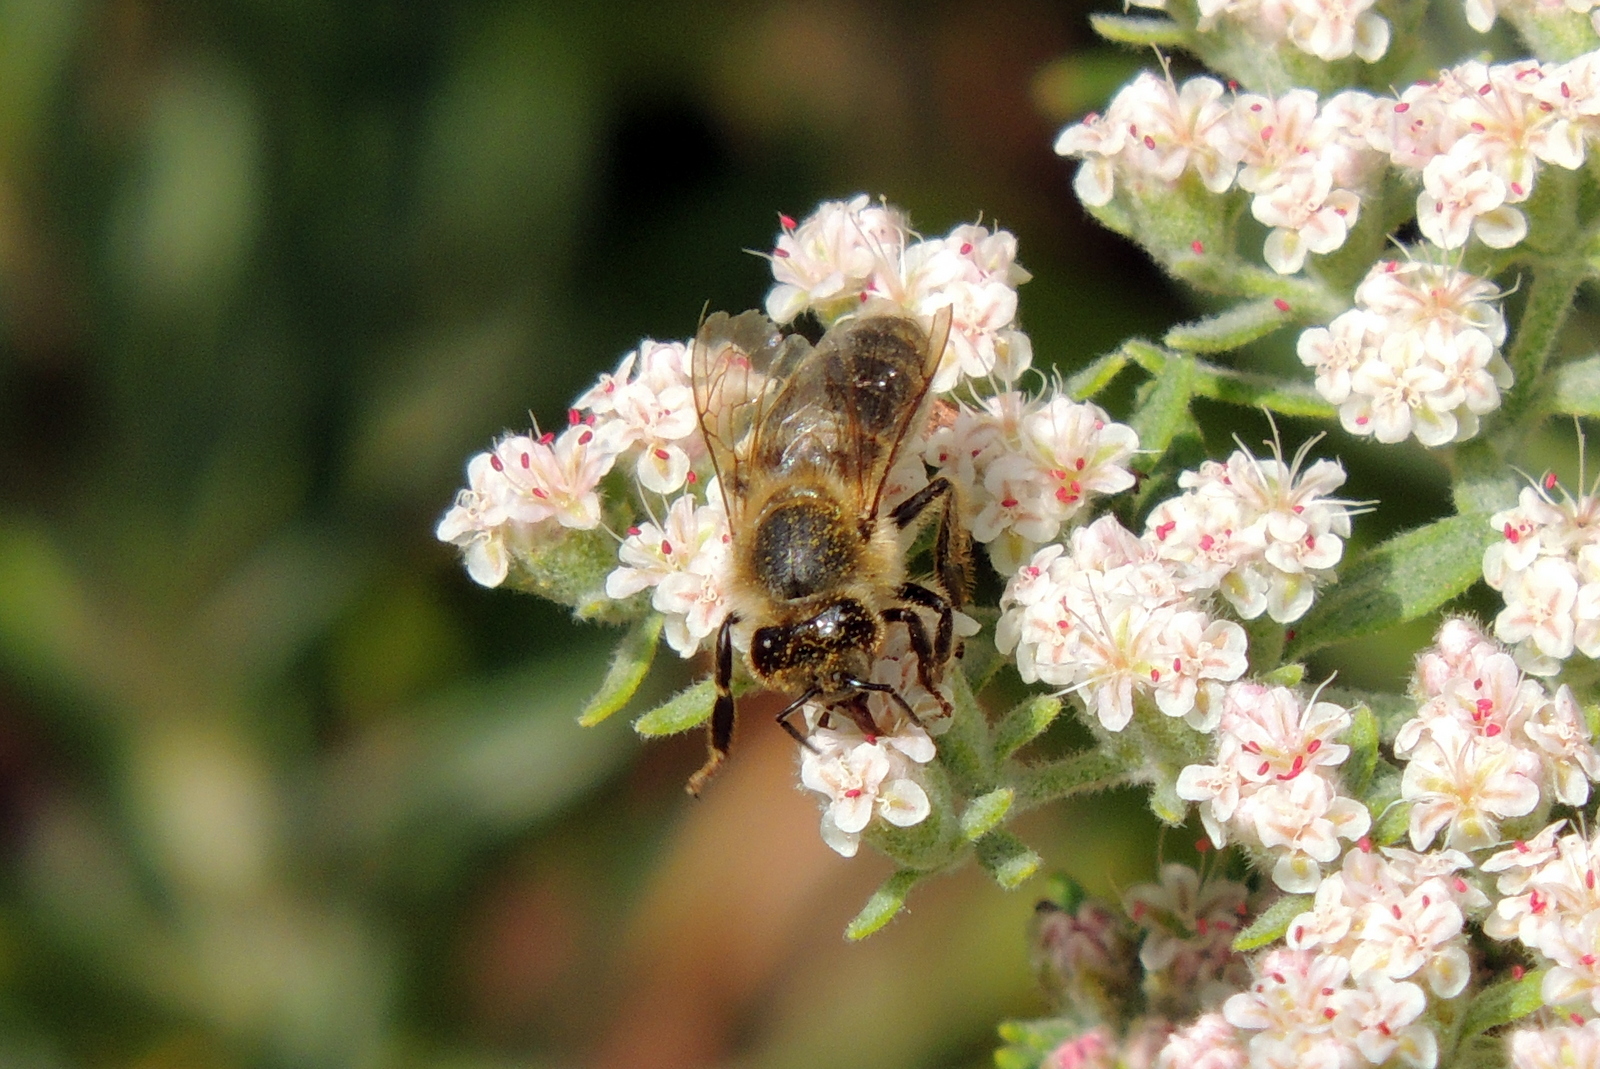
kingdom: Animalia
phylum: Arthropoda
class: Insecta
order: Hymenoptera
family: Apidae
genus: Apis
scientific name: Apis mellifera
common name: Honey bee
